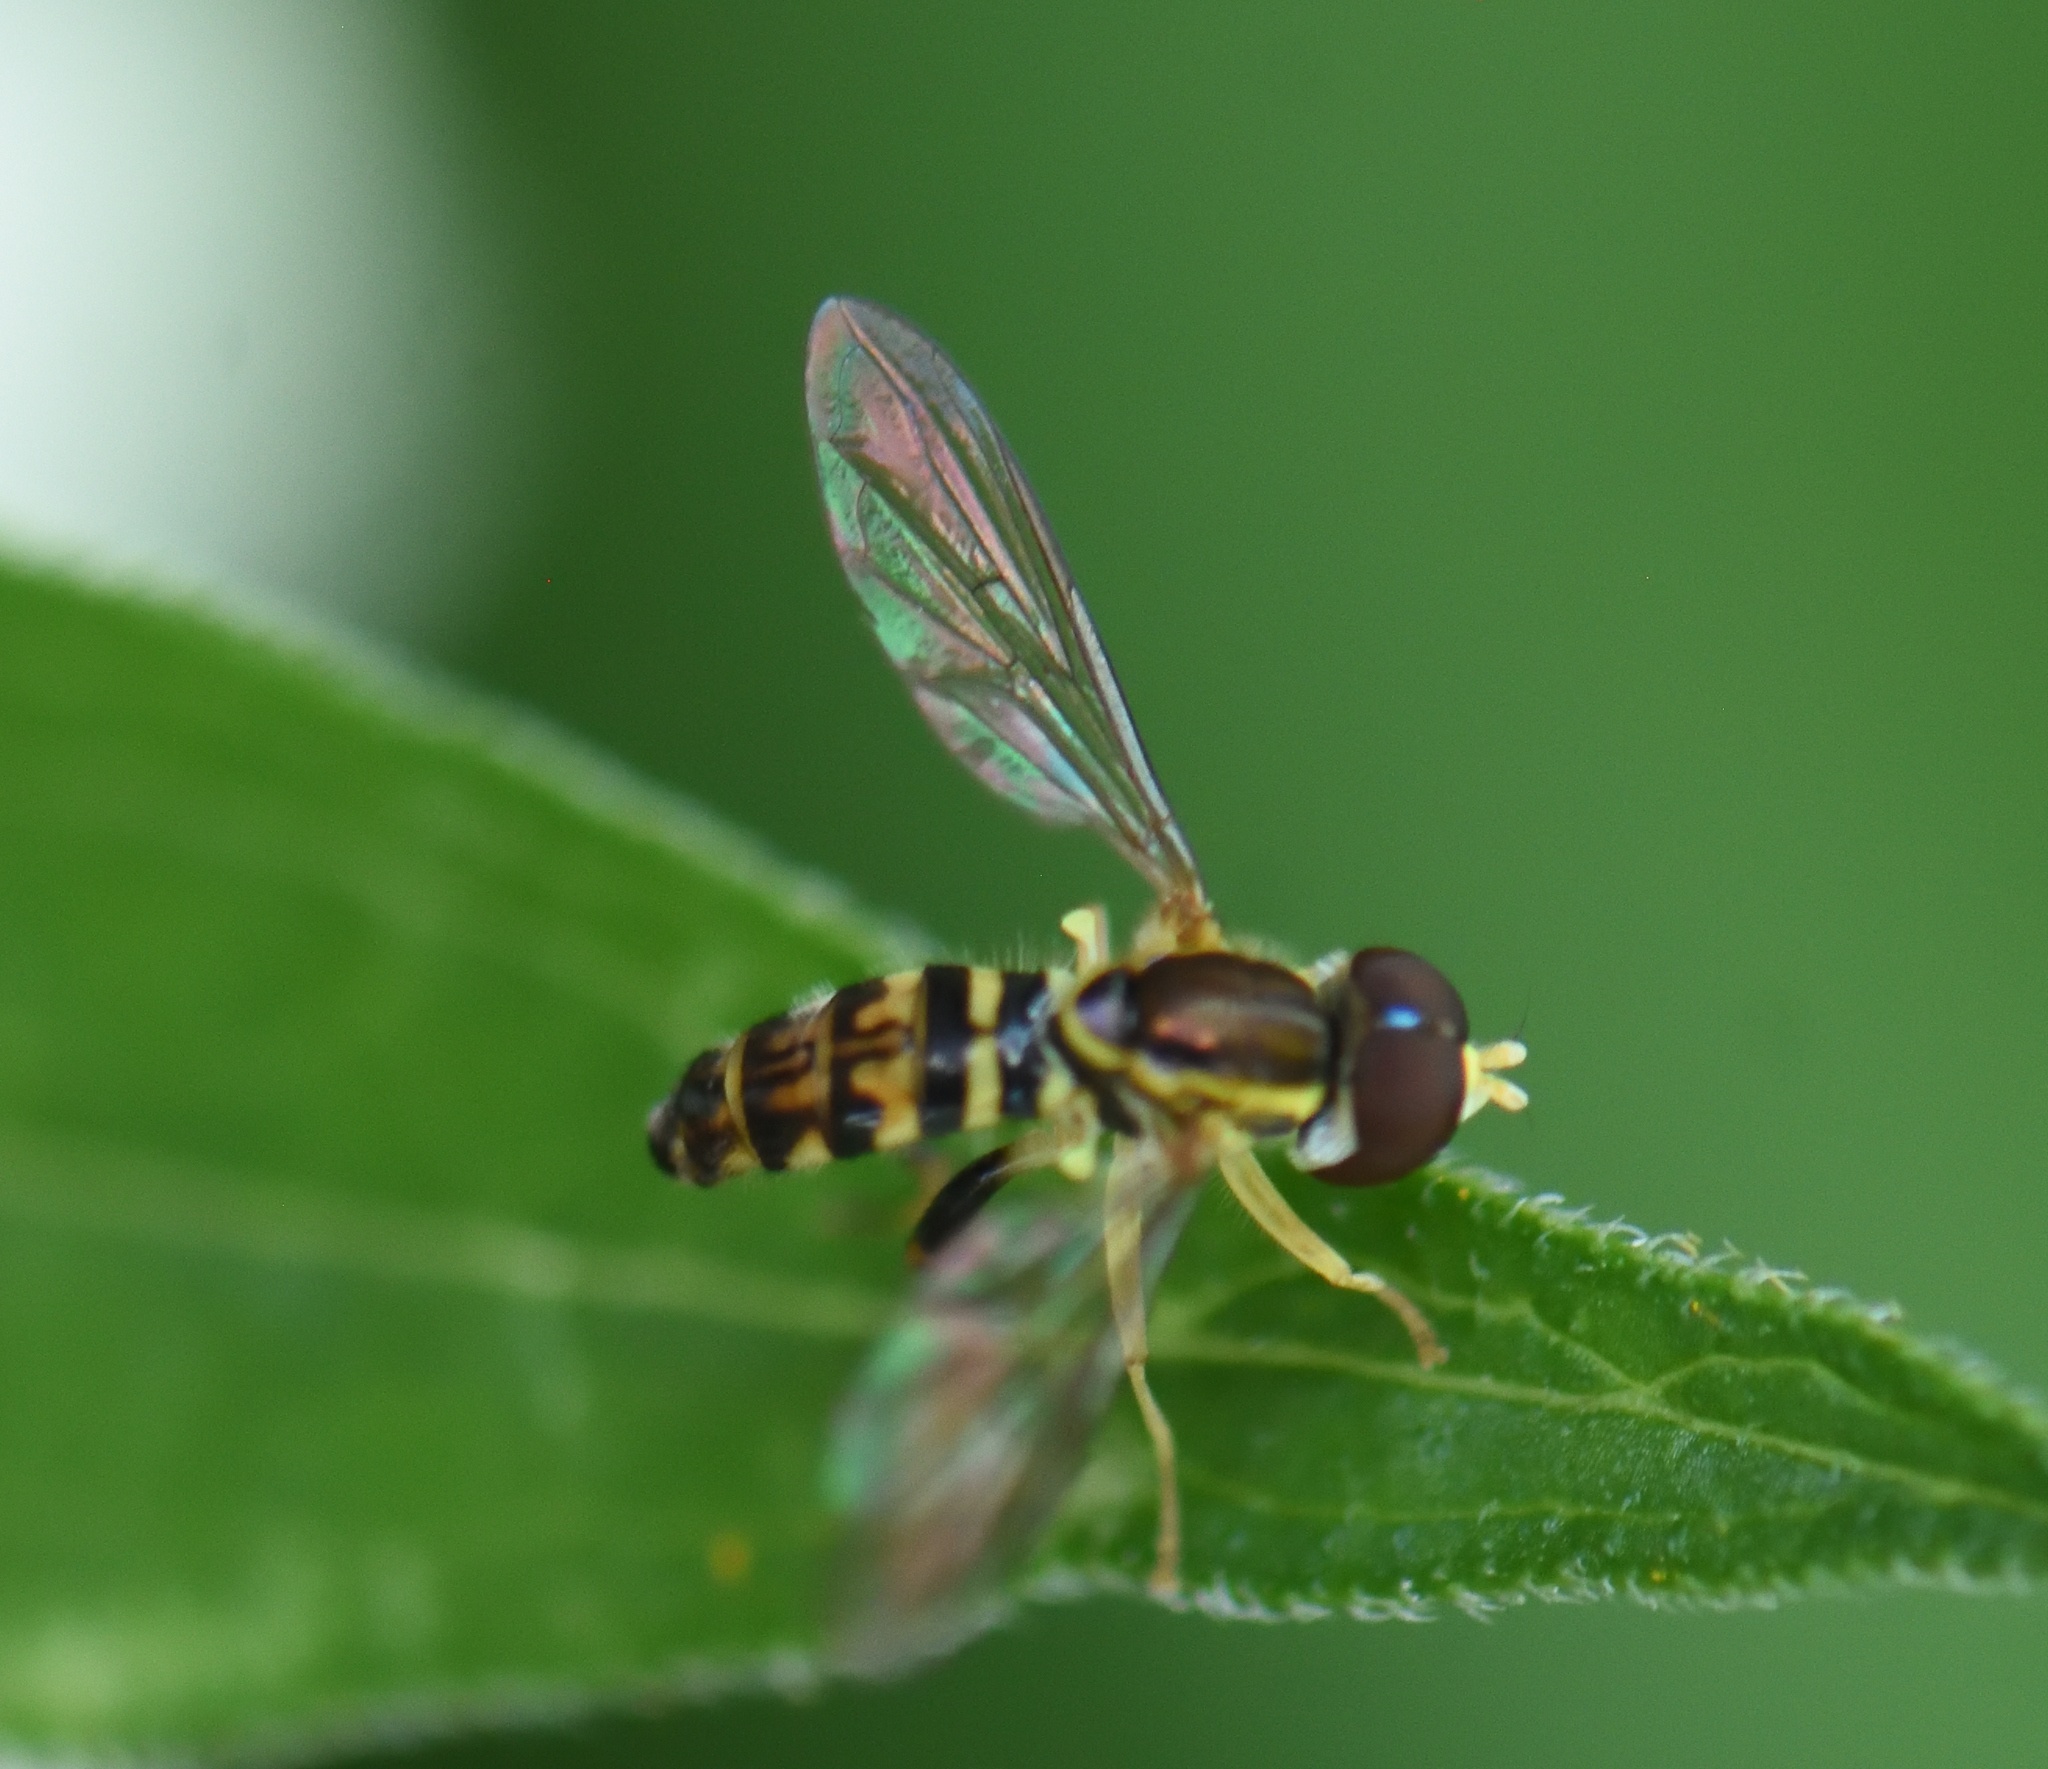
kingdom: Animalia
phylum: Arthropoda
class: Insecta
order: Diptera
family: Syrphidae
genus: Toxomerus
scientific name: Toxomerus geminatus
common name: Eastern calligrapher
